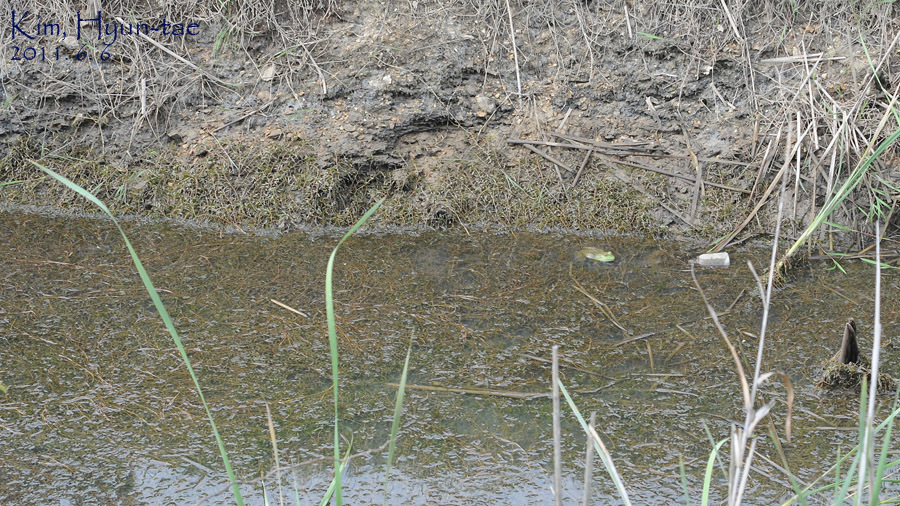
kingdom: Animalia
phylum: Chordata
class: Amphibia
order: Anura
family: Ranidae
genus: Lithobates
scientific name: Lithobates catesbeianus
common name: American bullfrog
